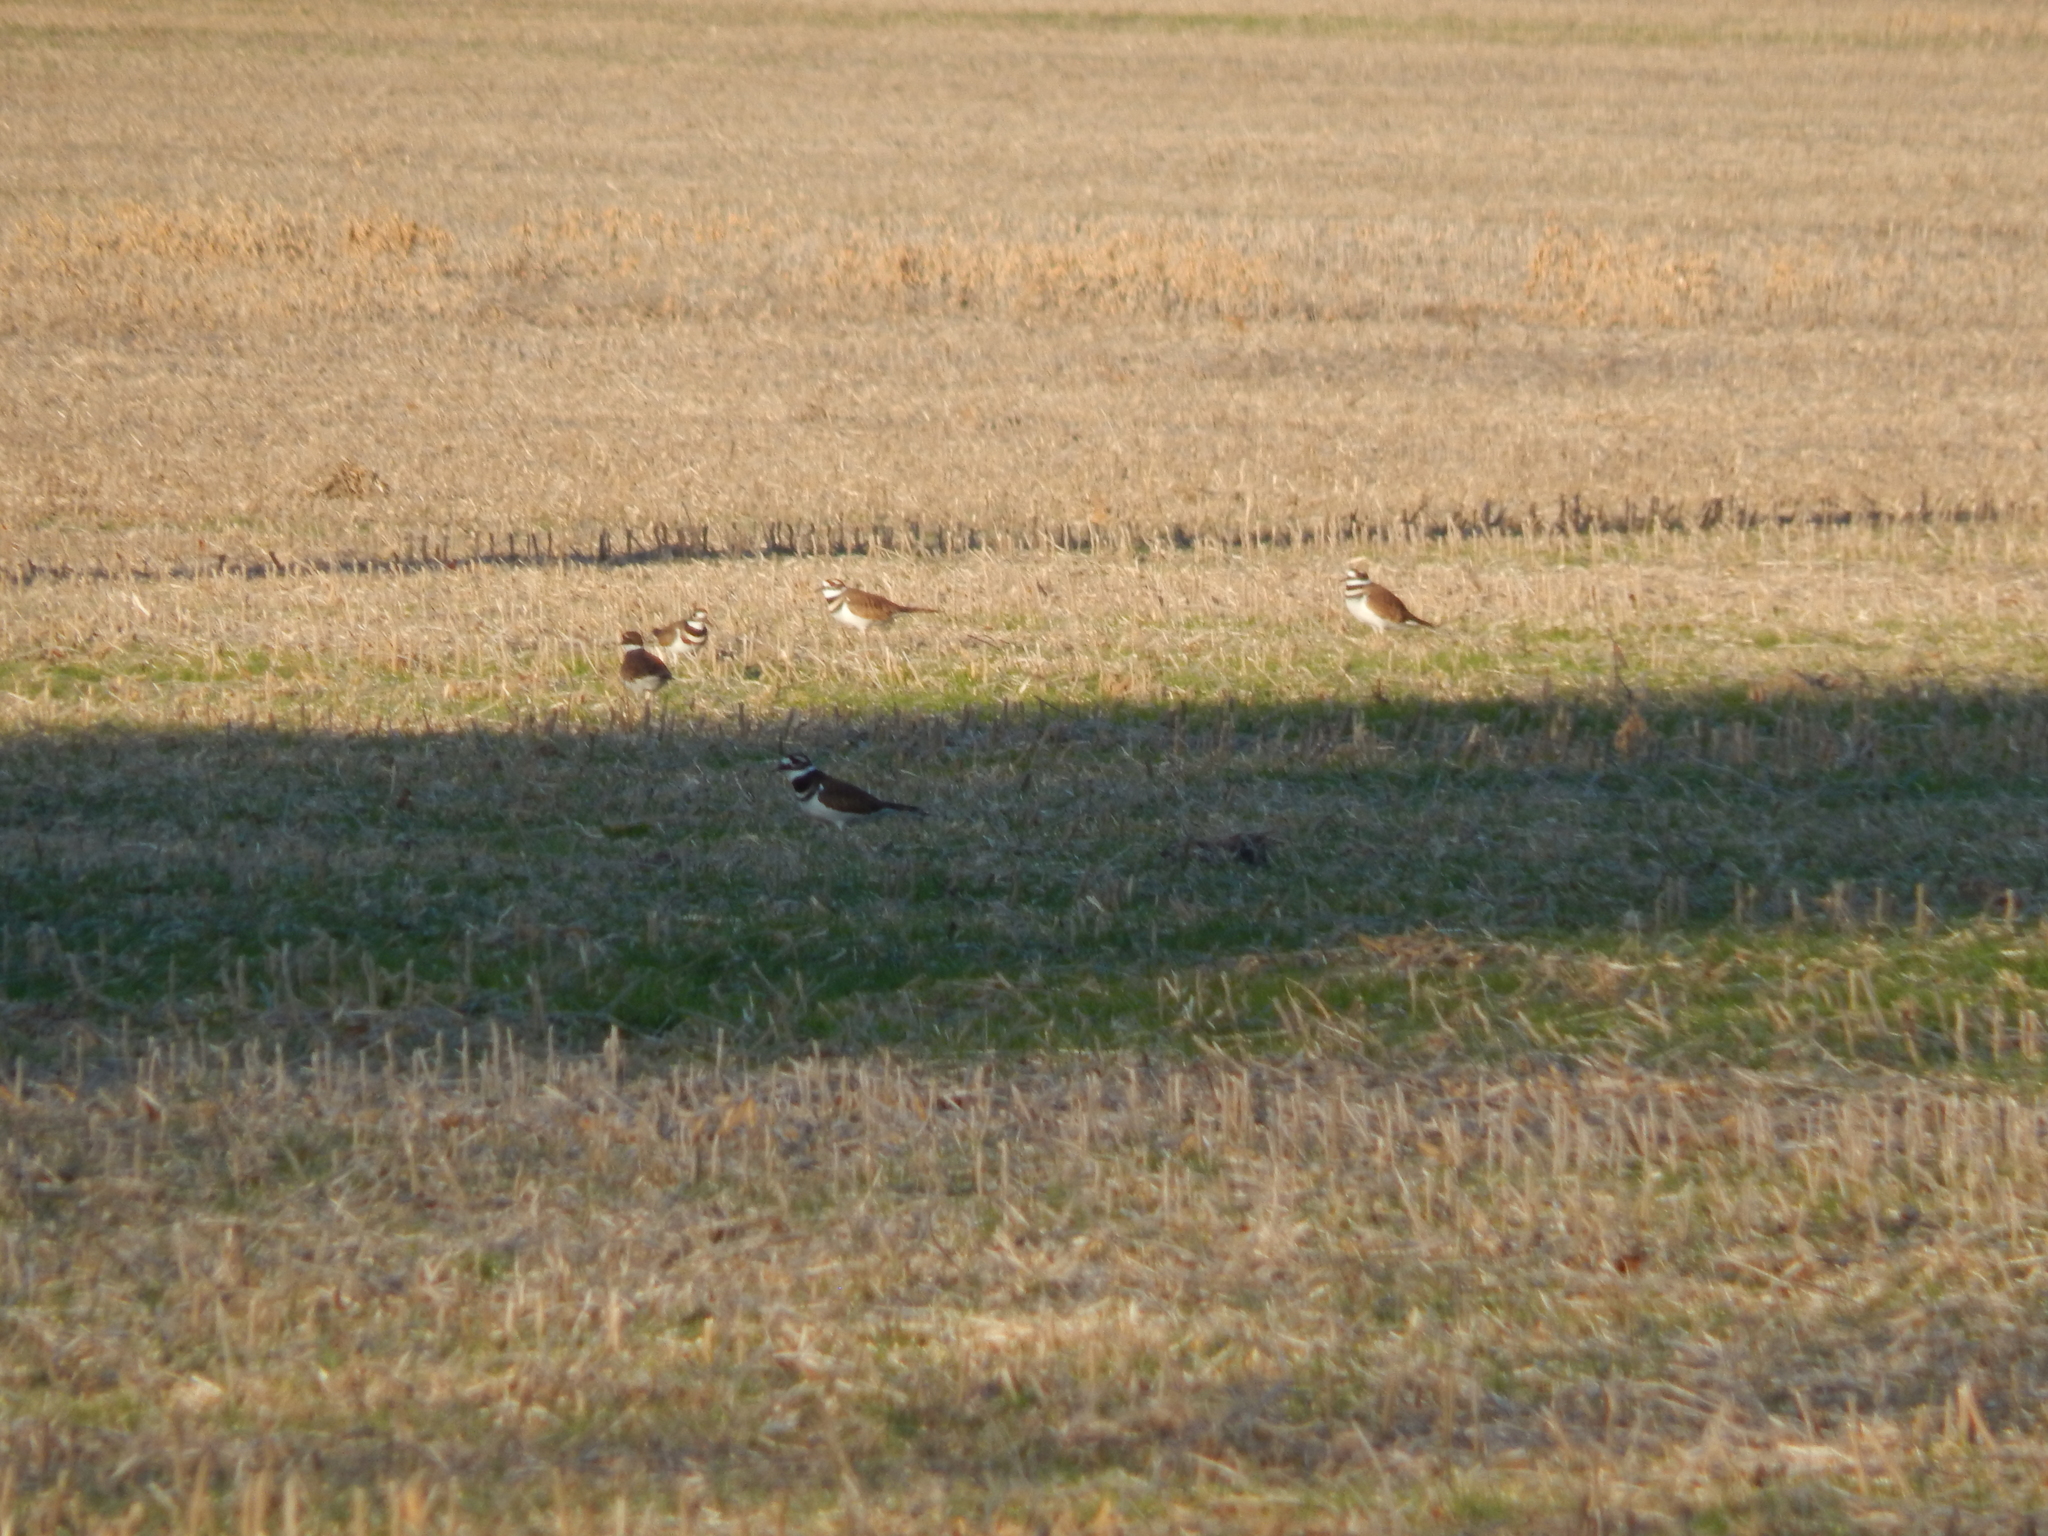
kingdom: Animalia
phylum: Chordata
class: Aves
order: Charadriiformes
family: Charadriidae
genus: Charadrius
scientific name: Charadrius vociferus
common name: Killdeer
